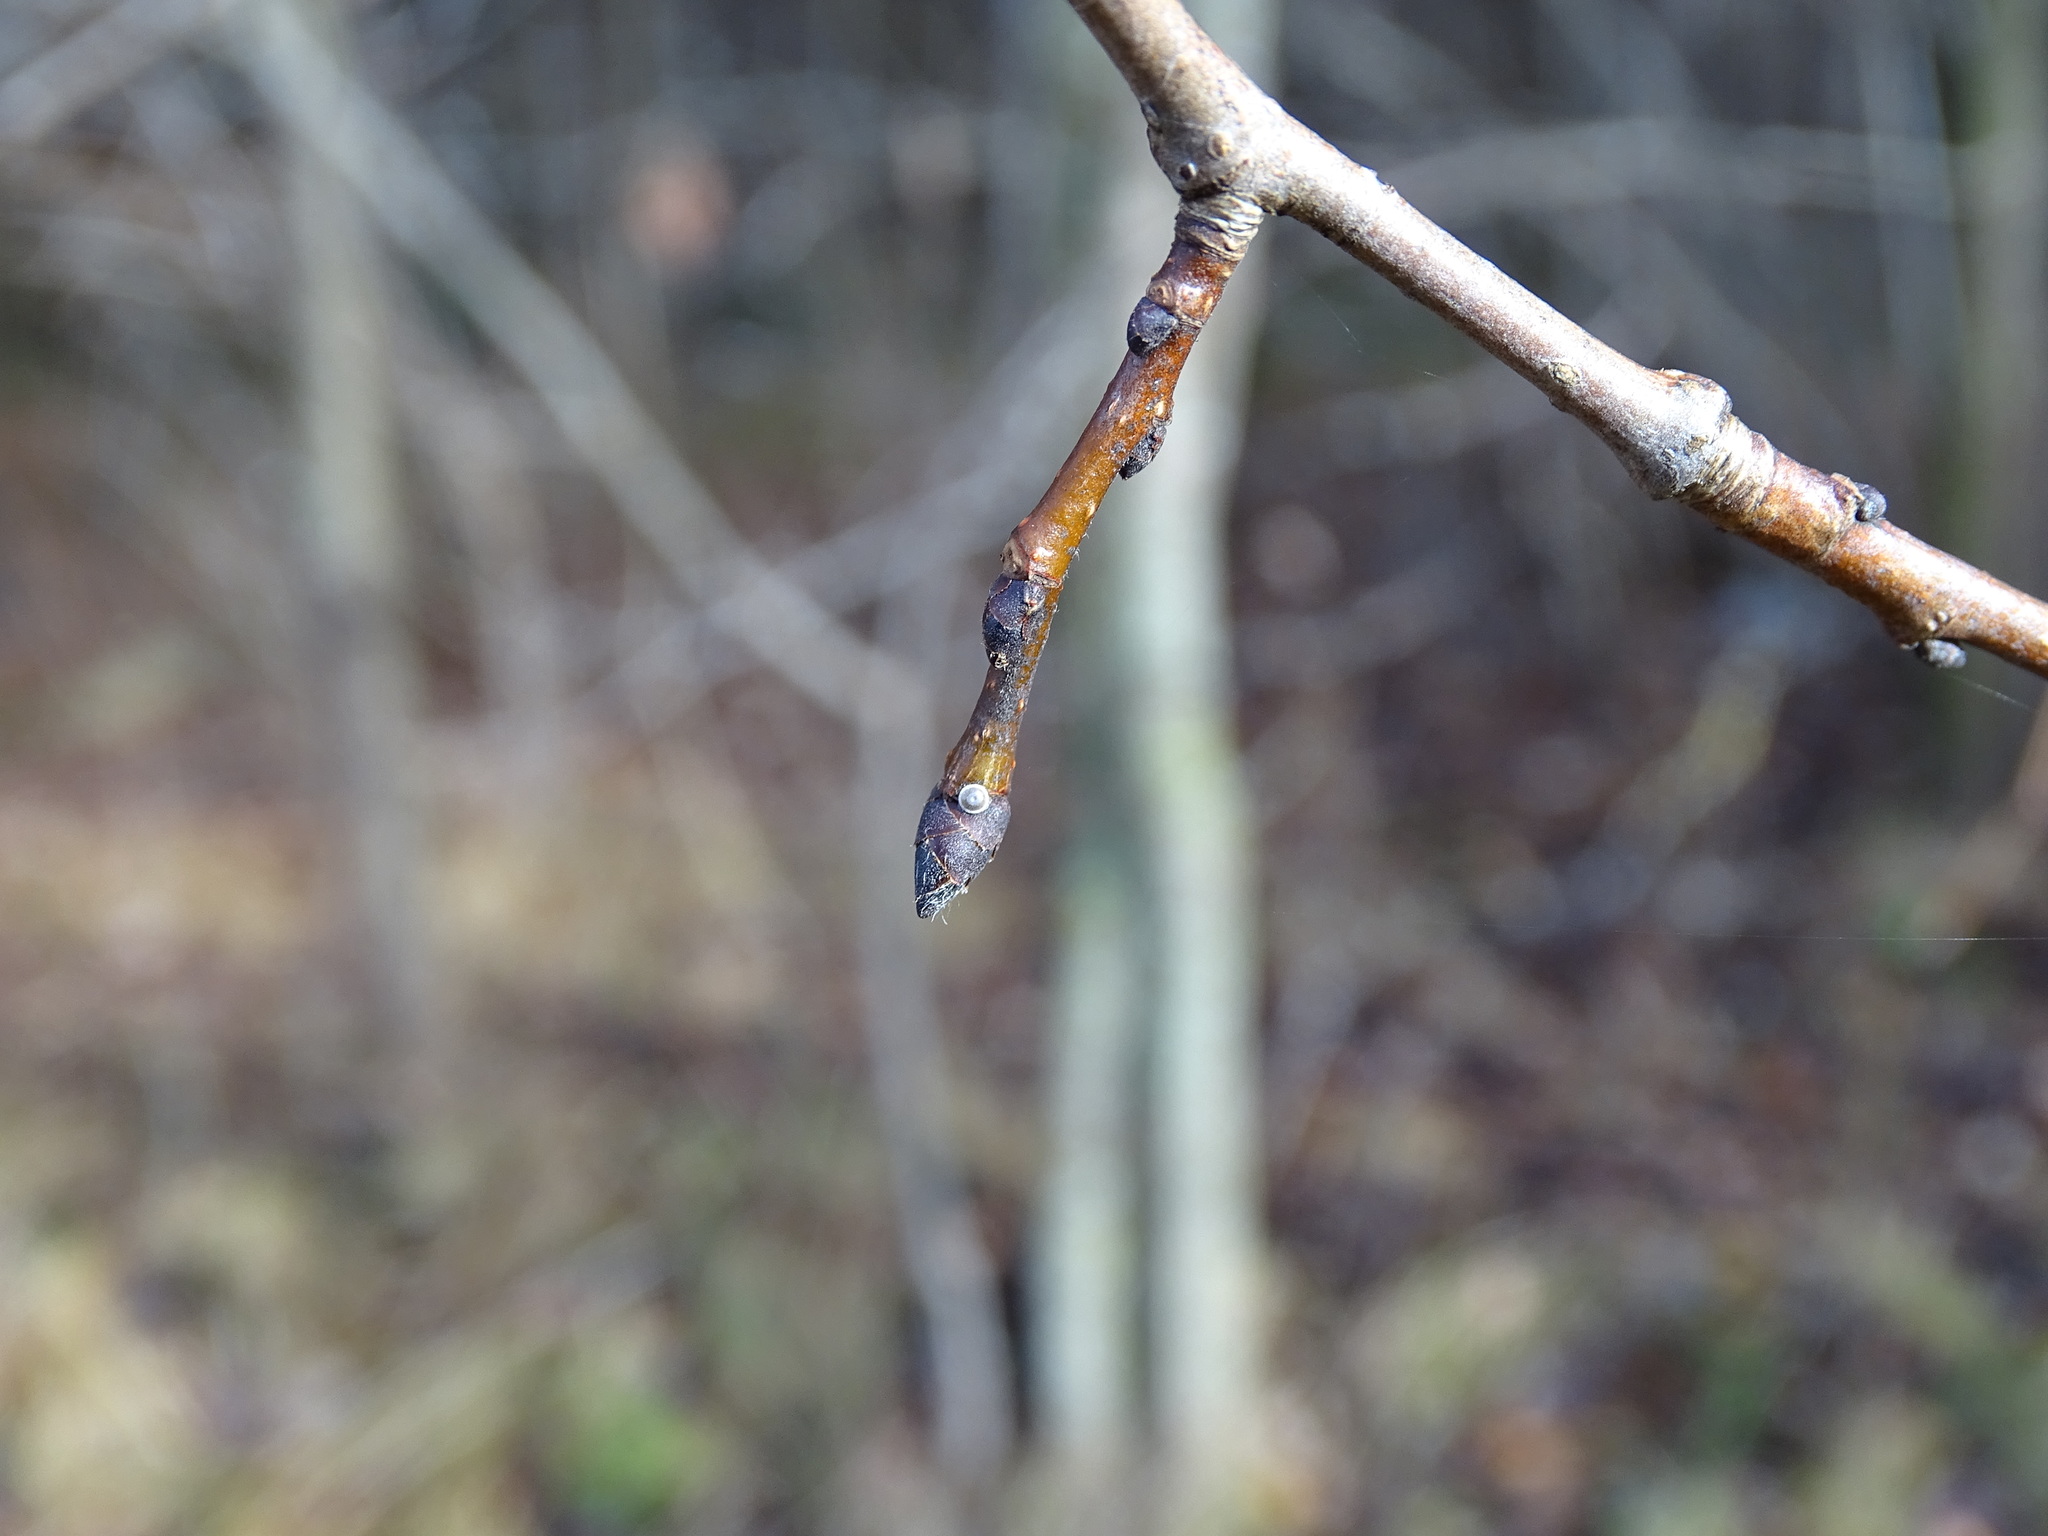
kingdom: Animalia
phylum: Arthropoda
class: Insecta
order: Lepidoptera
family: Lycaenidae
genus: Satyrium
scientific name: Satyrium w-album
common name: White-letter hairstreak
